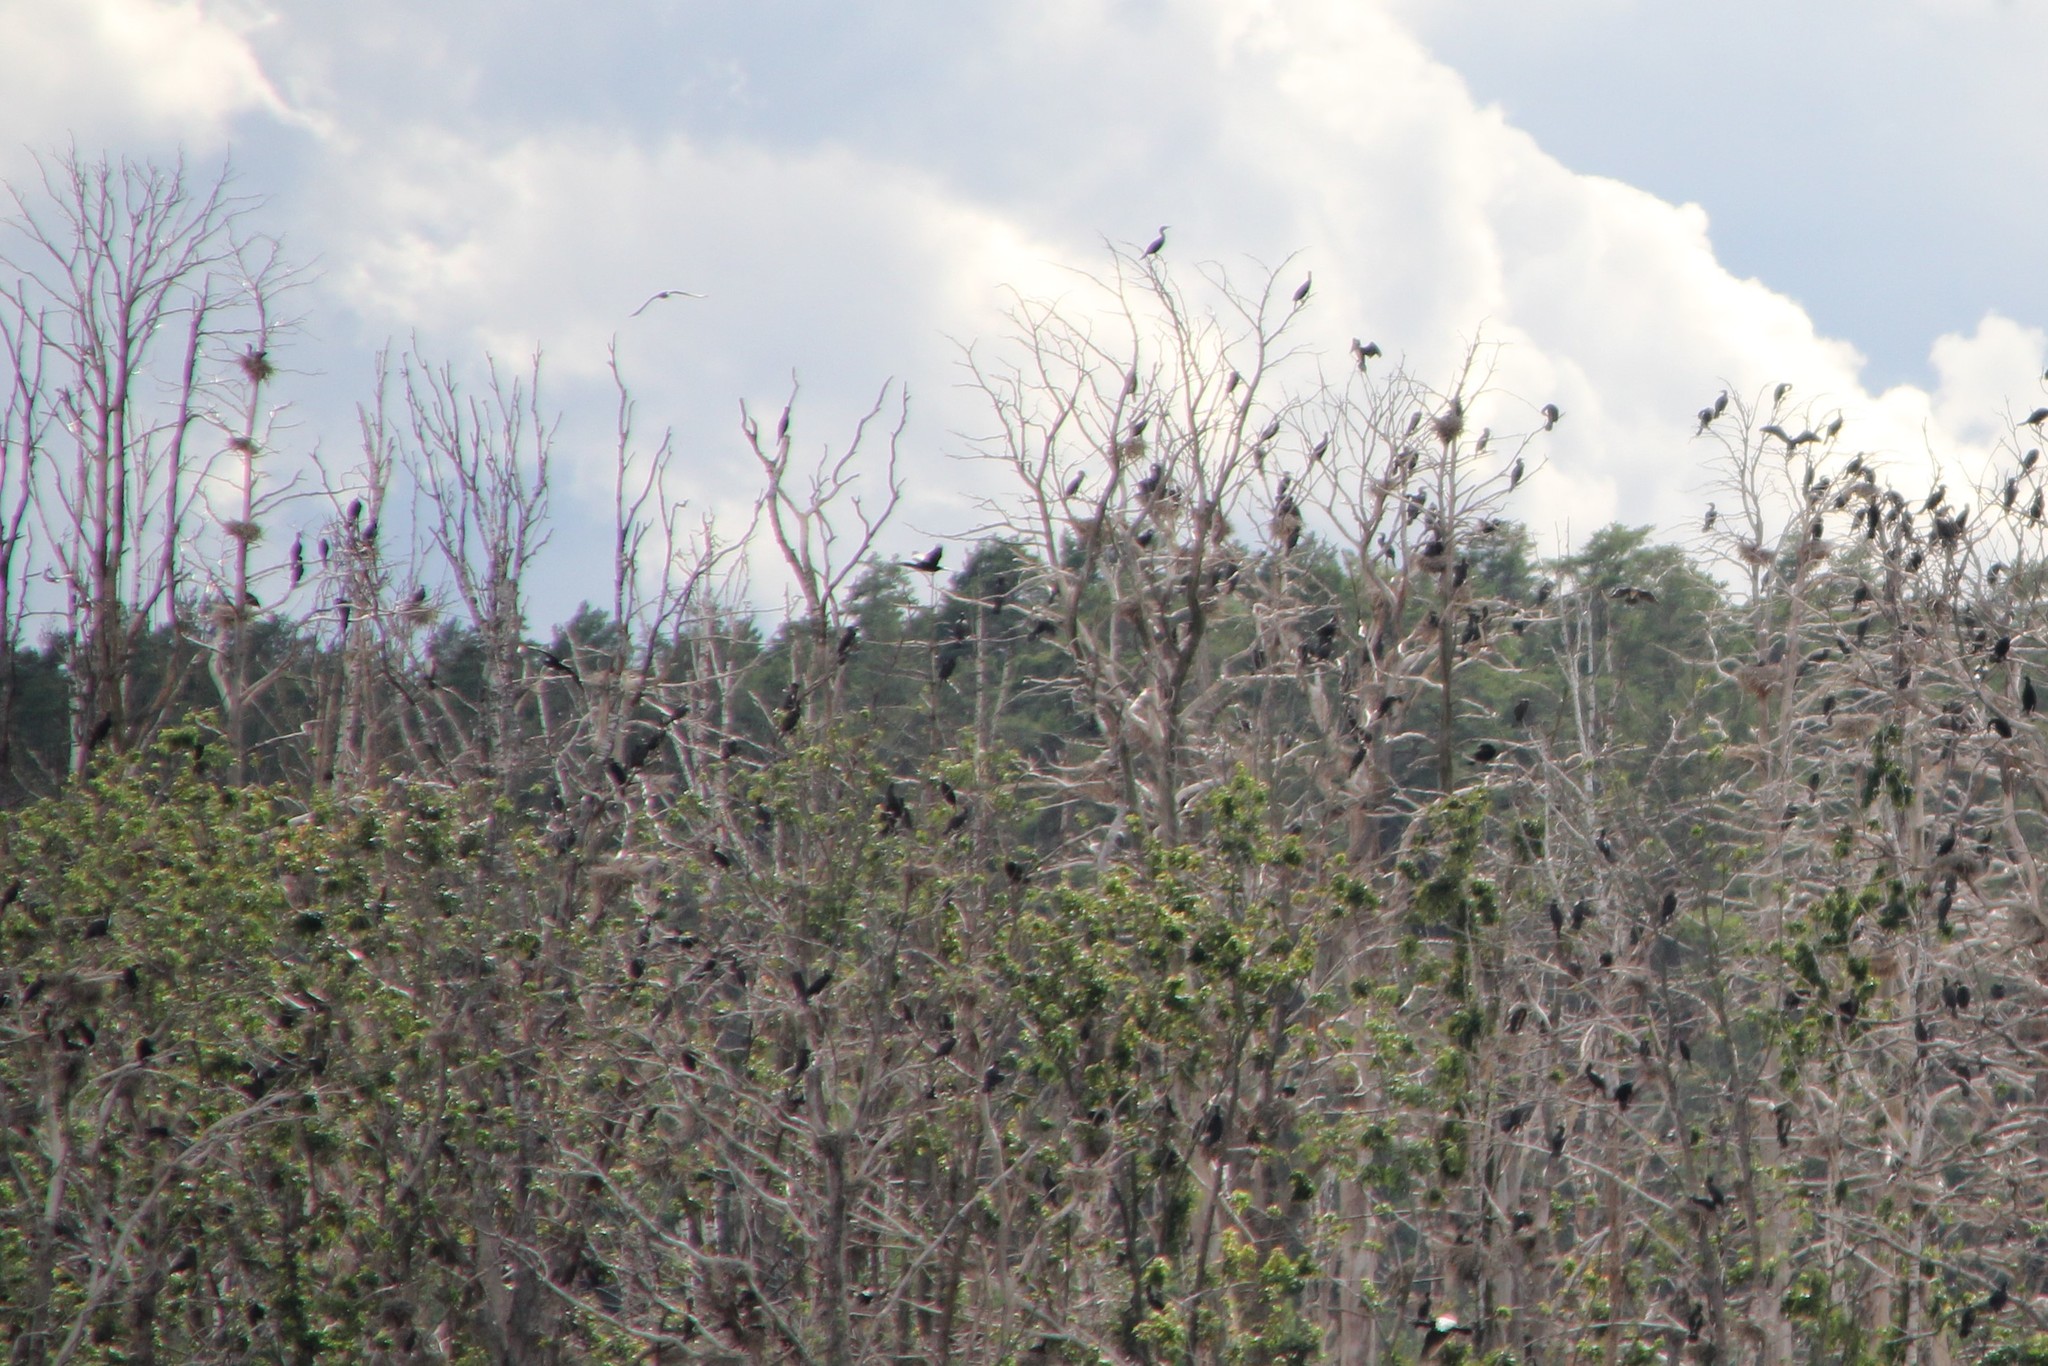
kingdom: Animalia
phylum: Chordata
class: Aves
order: Suliformes
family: Phalacrocoracidae
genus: Phalacrocorax
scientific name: Phalacrocorax carbo
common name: Great cormorant
